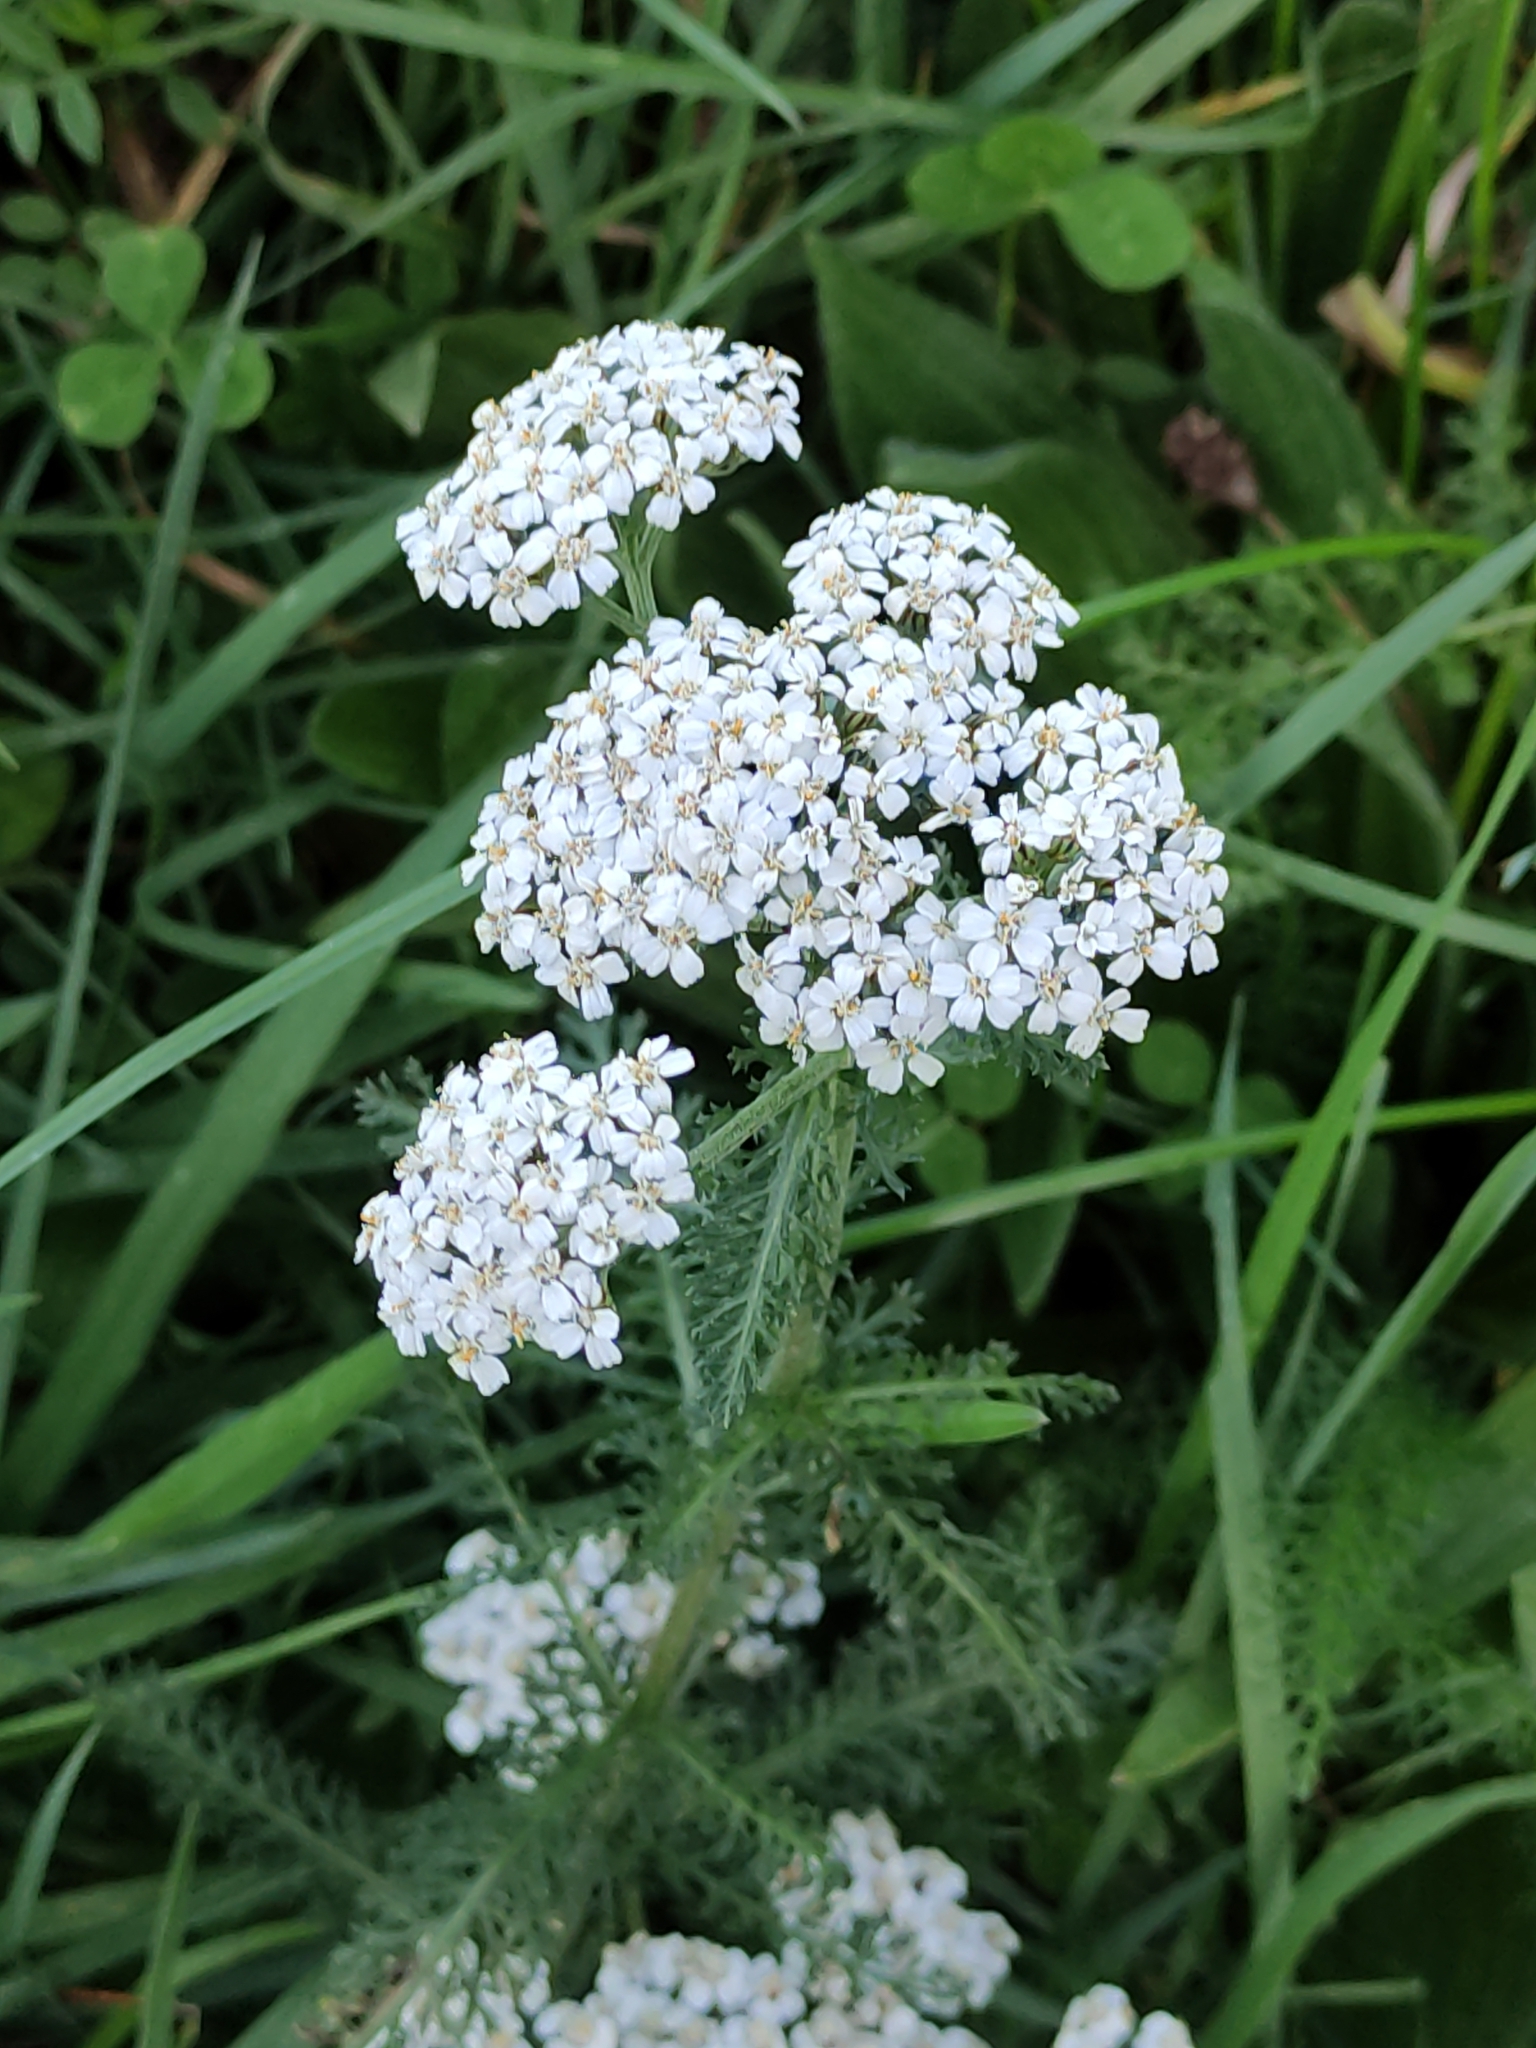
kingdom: Plantae
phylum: Tracheophyta
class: Magnoliopsida
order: Asterales
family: Asteraceae
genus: Achillea
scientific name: Achillea millefolium
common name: Yarrow
